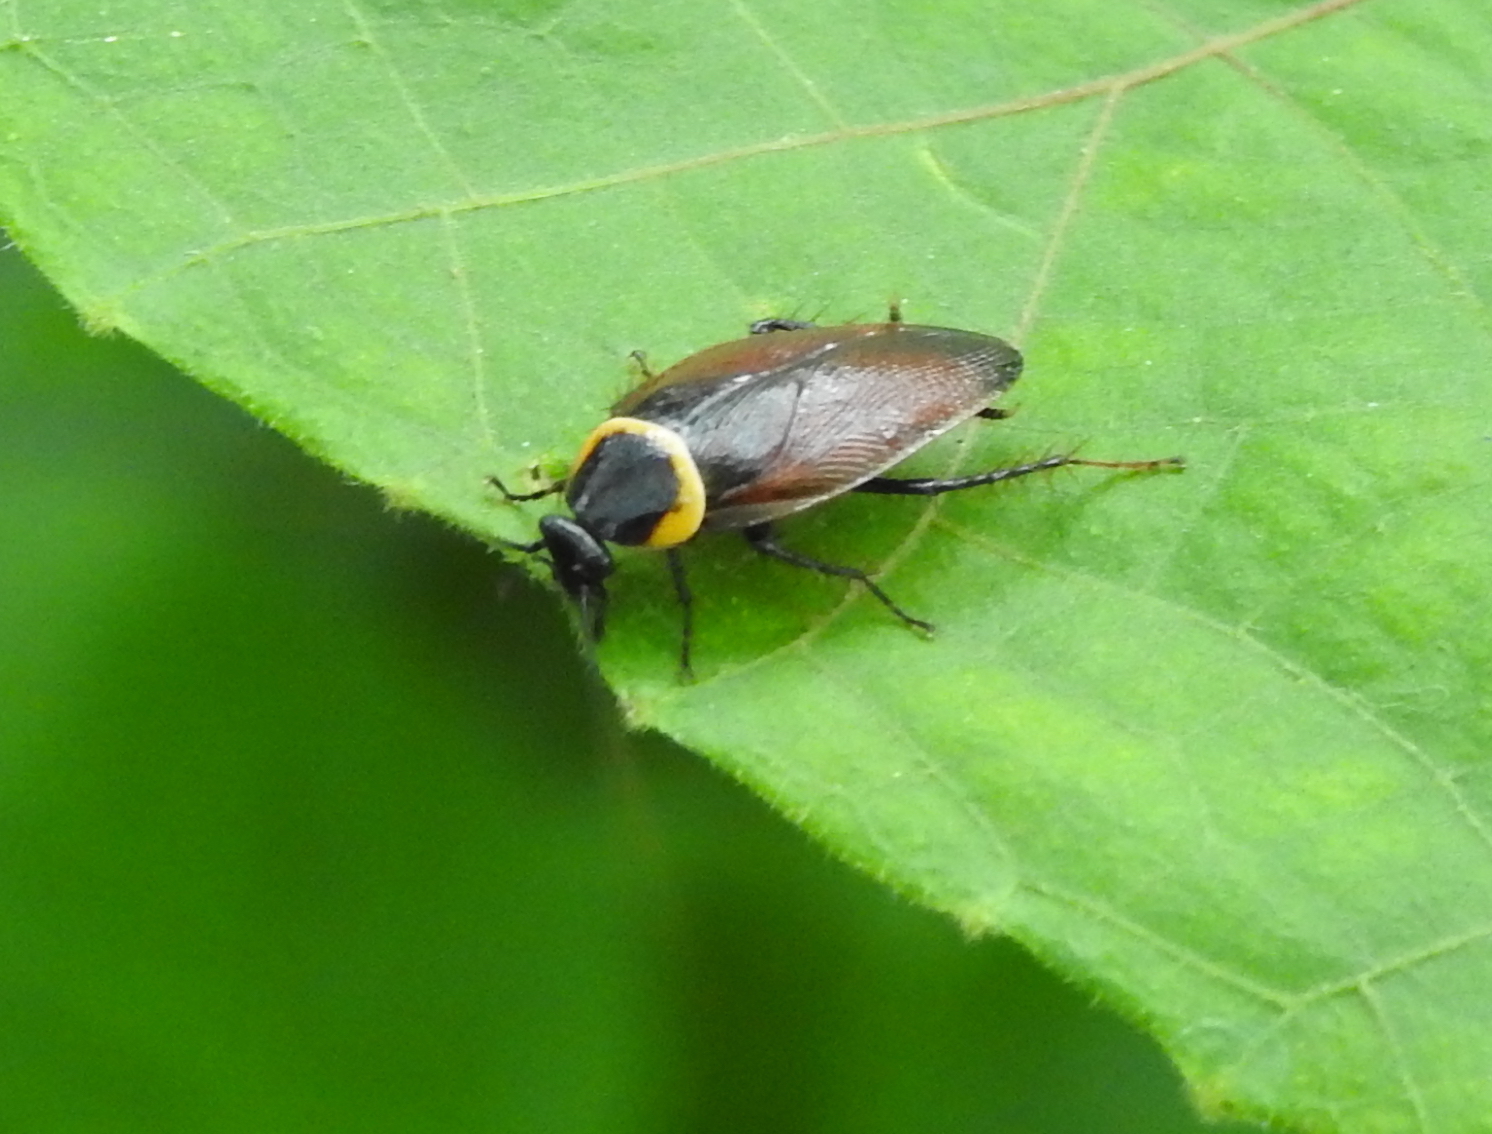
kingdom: Animalia
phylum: Arthropoda
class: Insecta
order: Blattodea
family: Ectobiidae
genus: Hemithyrsocera
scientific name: Hemithyrsocera palliata
